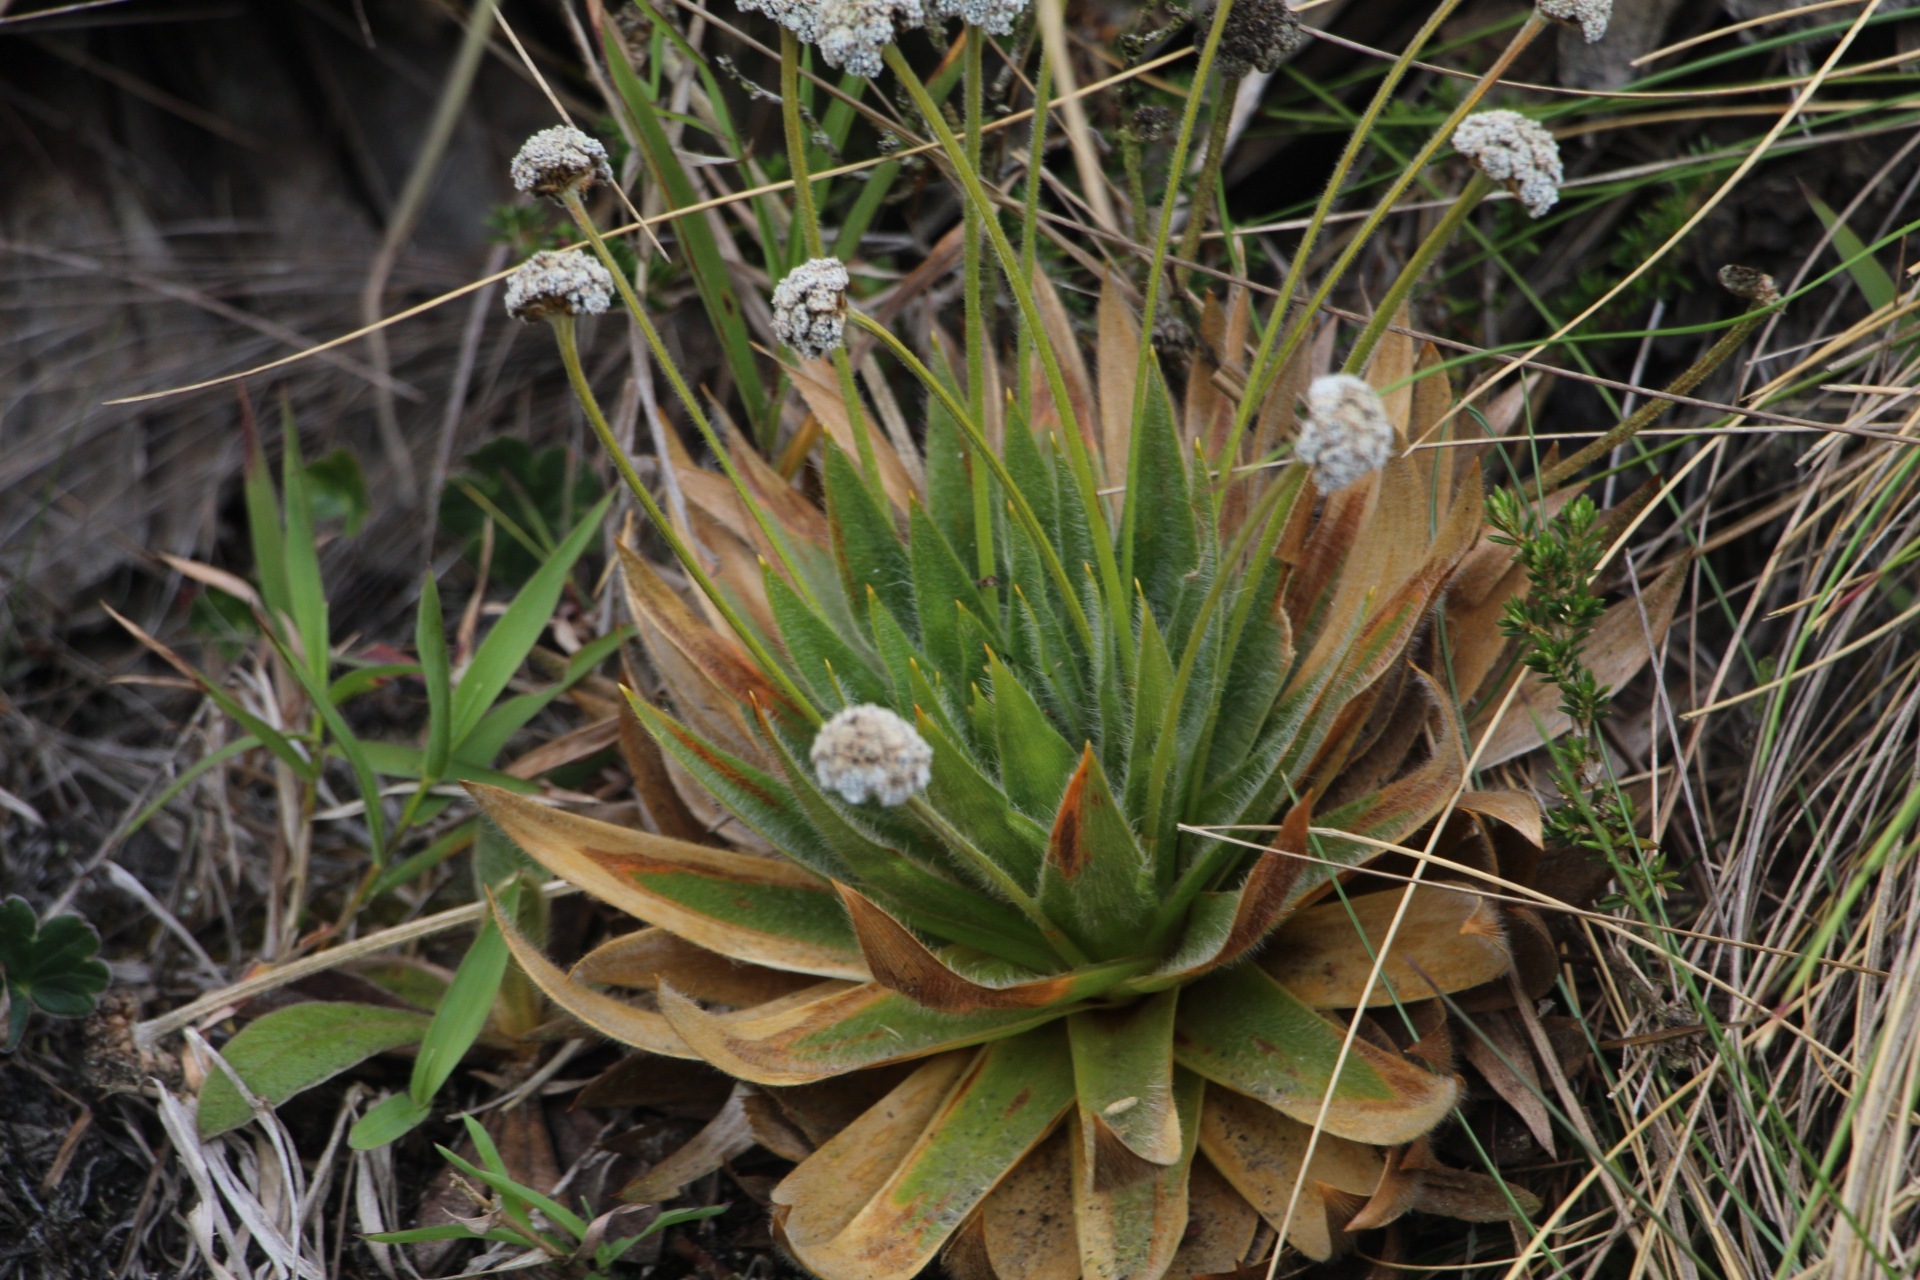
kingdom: Plantae
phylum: Tracheophyta
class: Liliopsida
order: Poales
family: Eriocaulaceae
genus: Paepalanthus
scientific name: Paepalanthus alpinus
